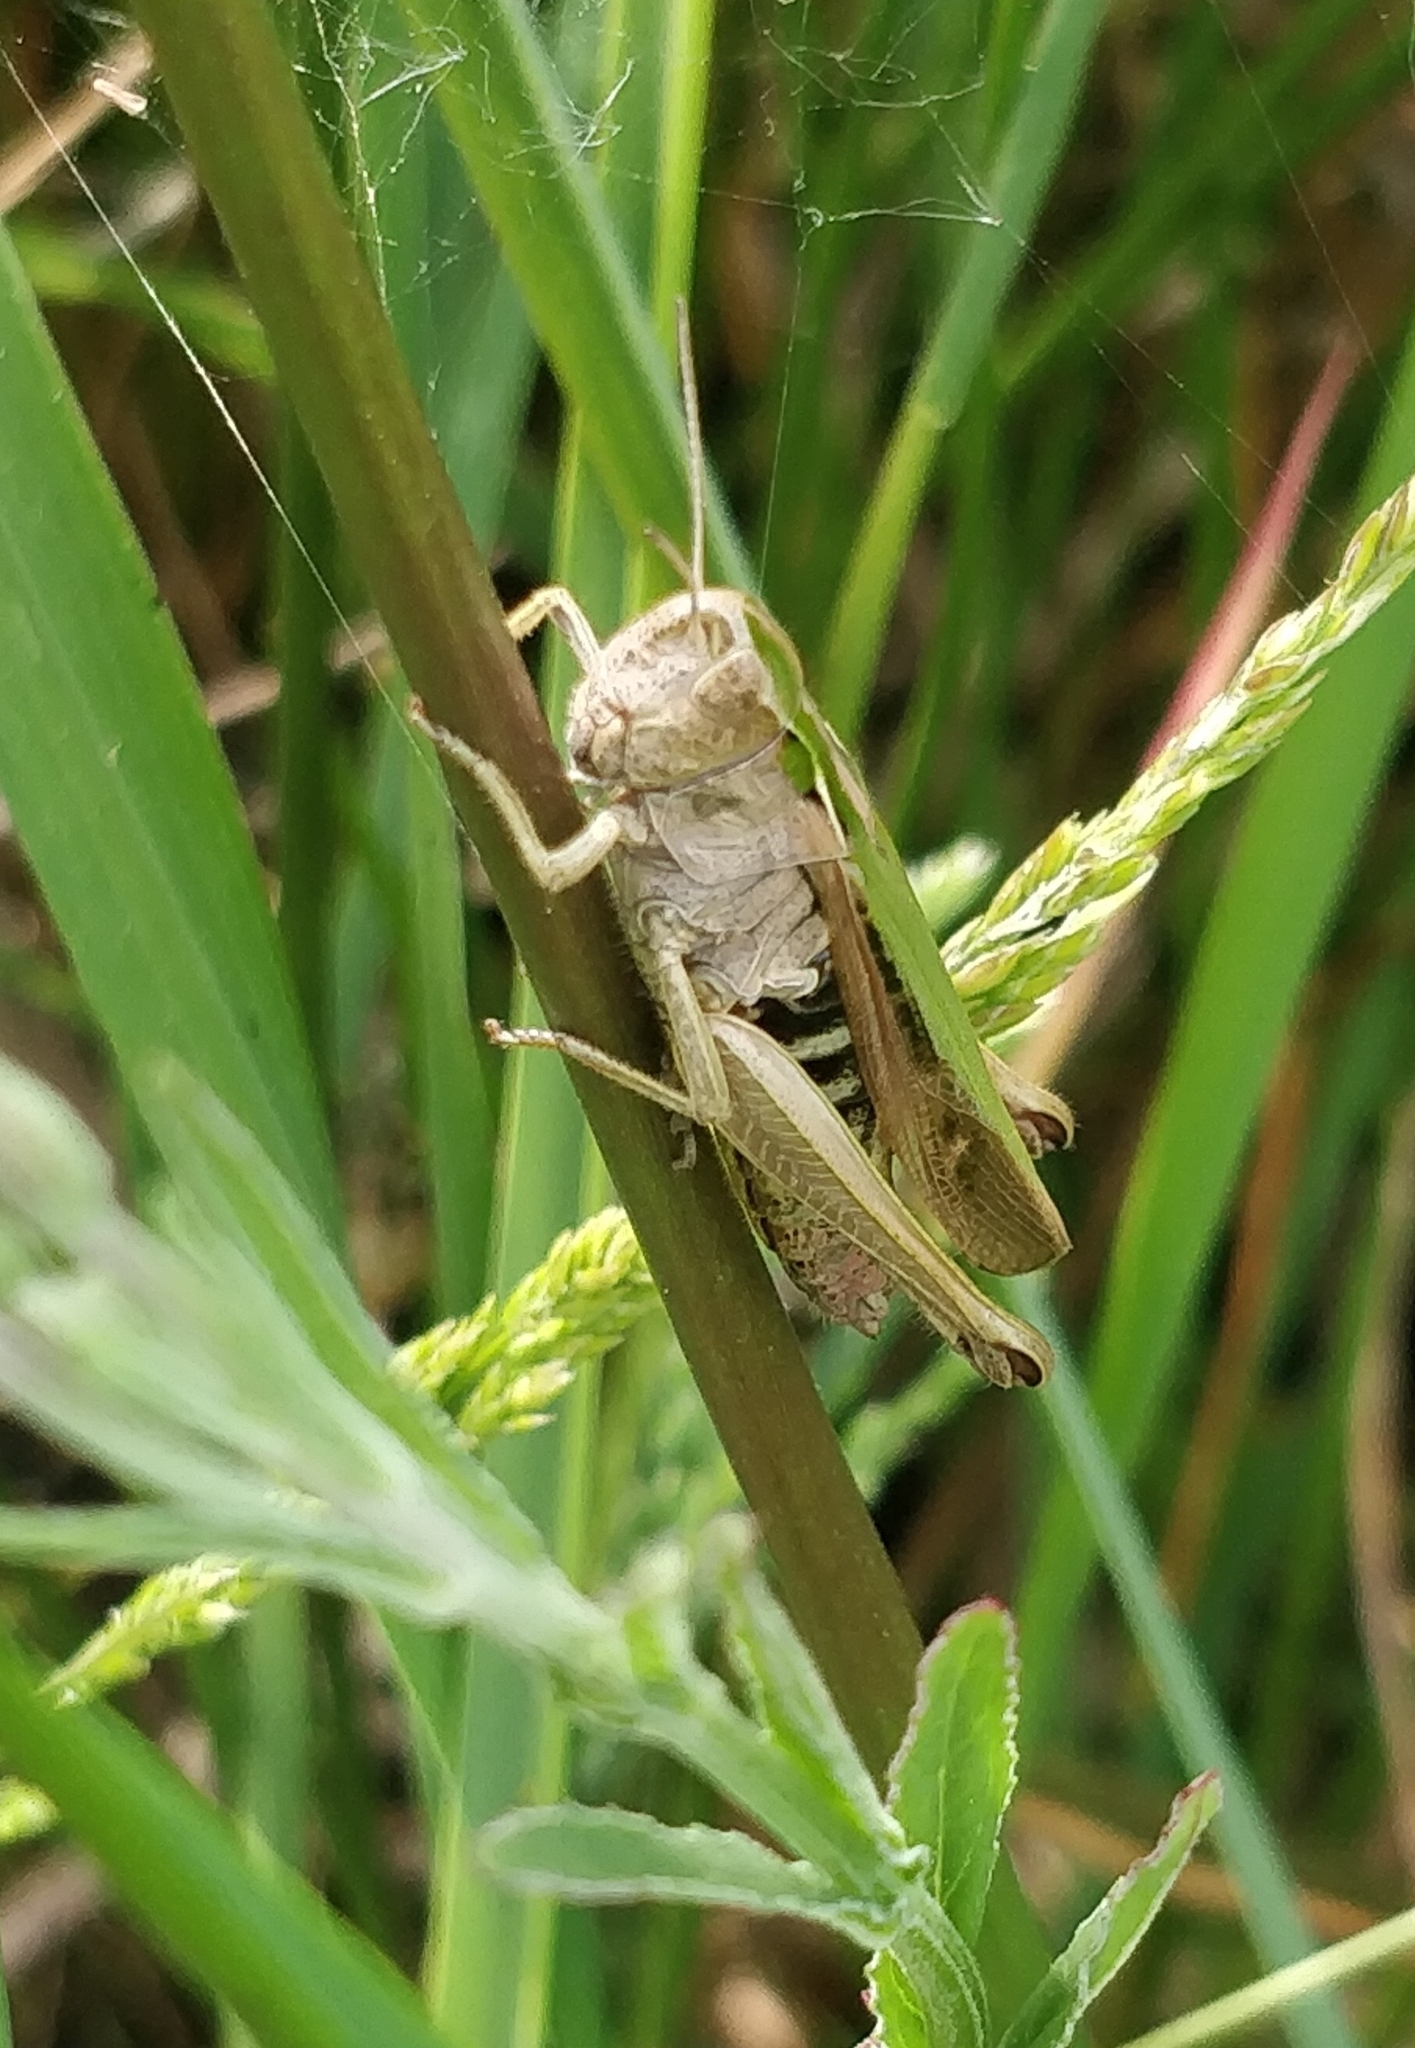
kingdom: Animalia
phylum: Arthropoda
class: Insecta
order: Orthoptera
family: Acrididae
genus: Omocestus
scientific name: Omocestus viridulus
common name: Common green grasshopper
